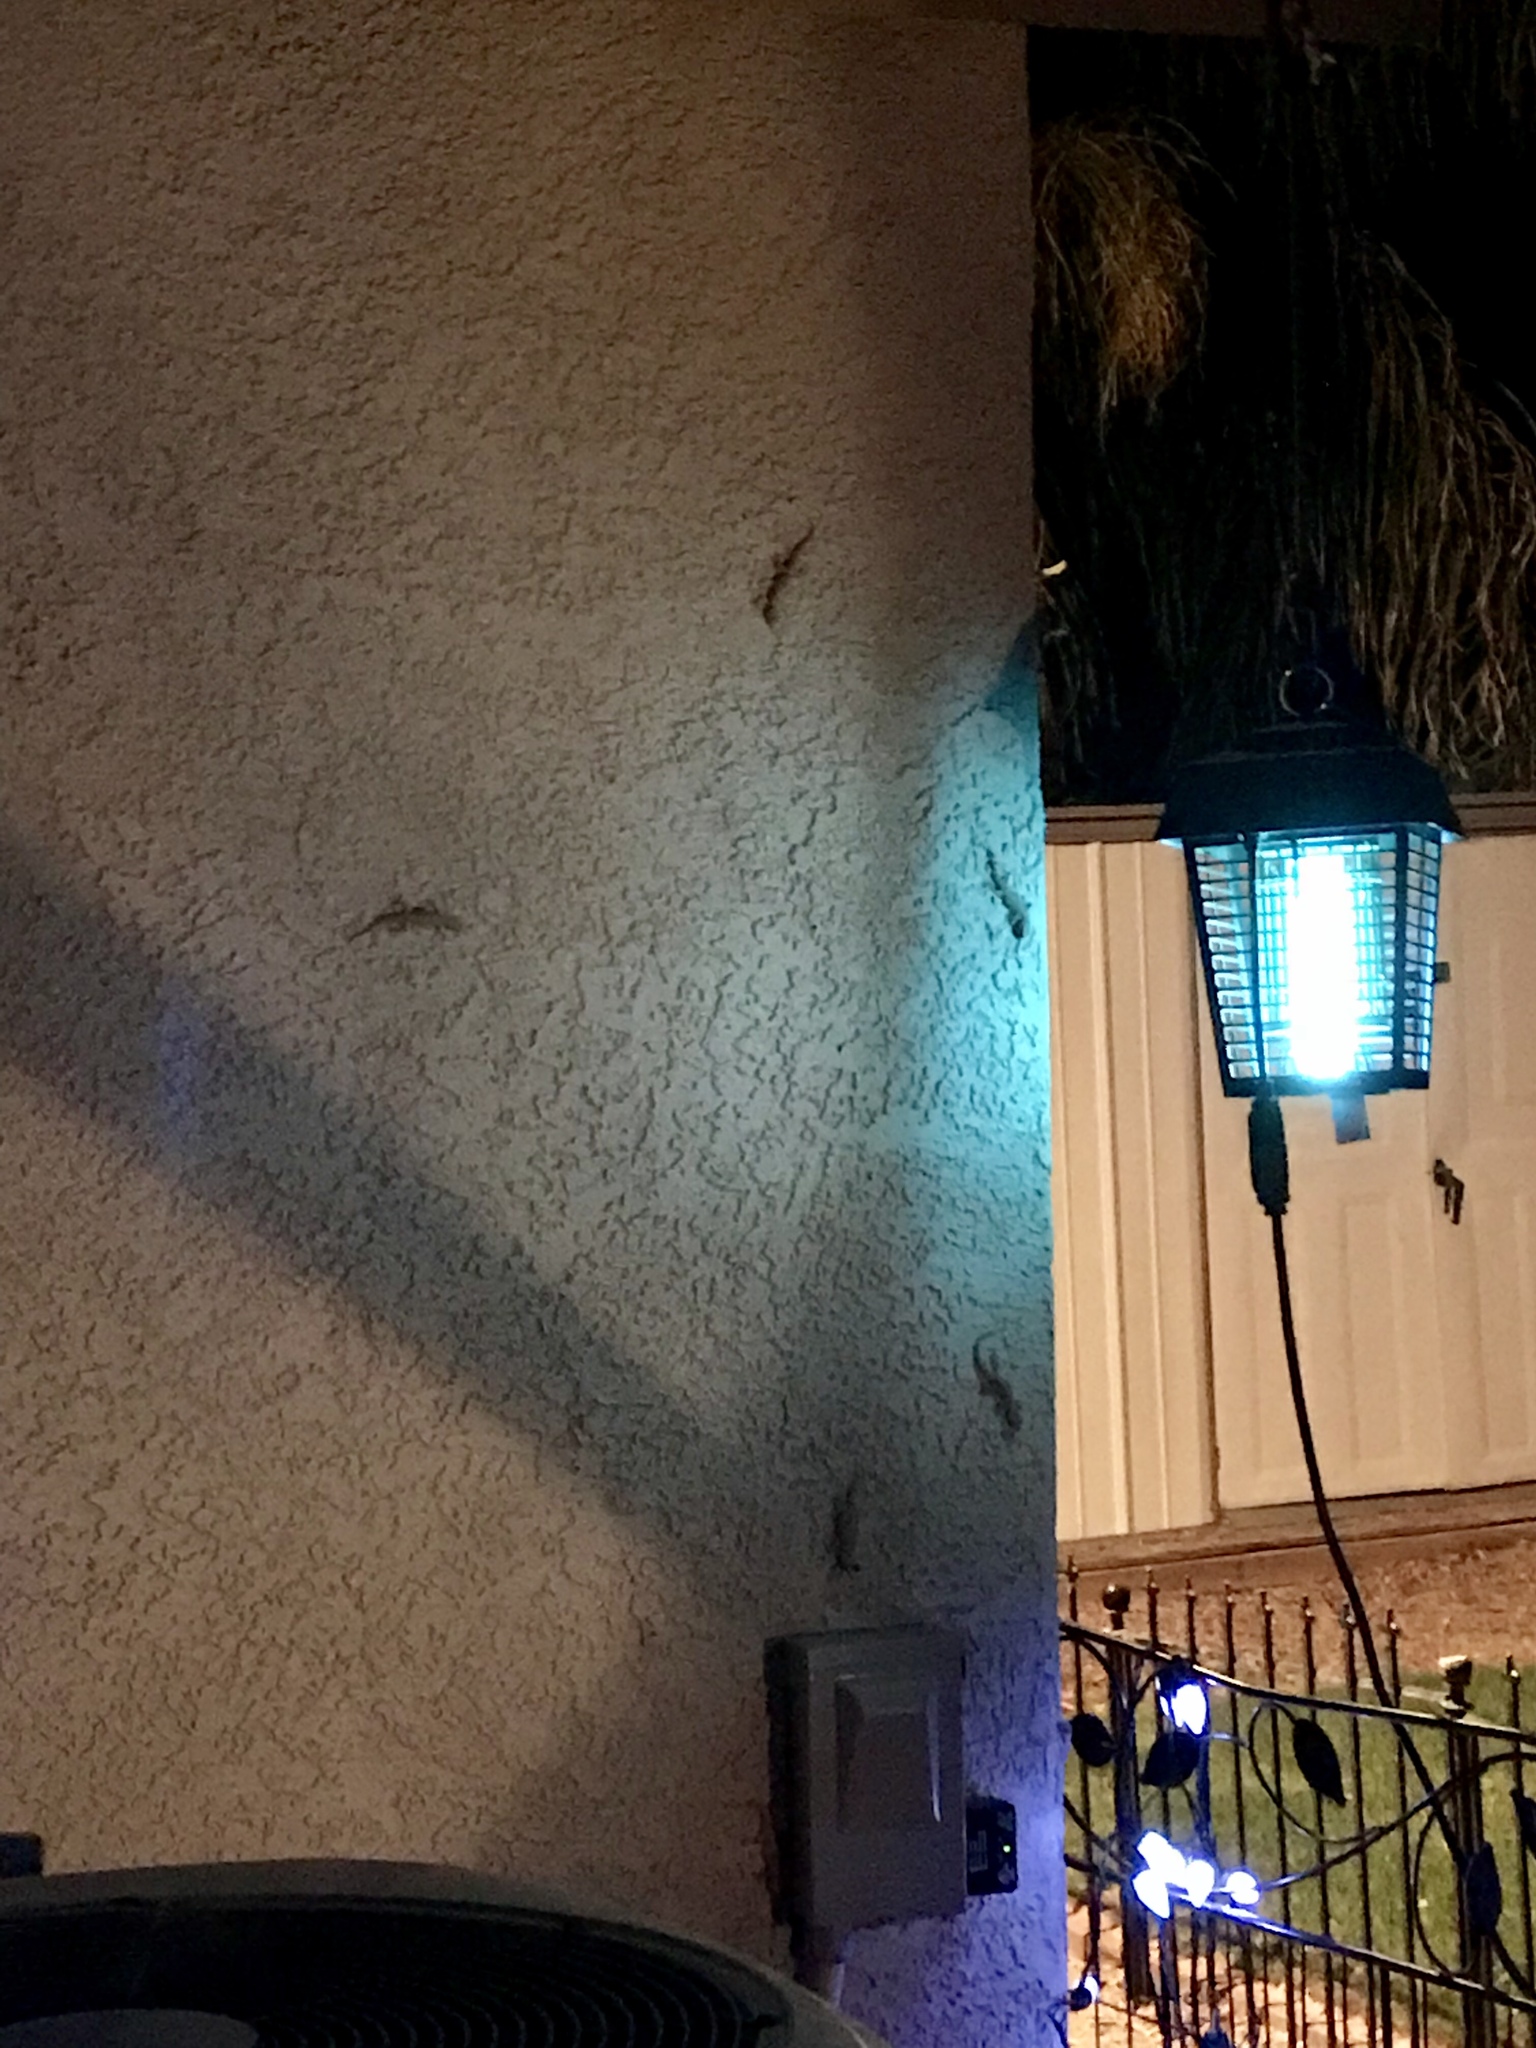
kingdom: Animalia
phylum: Chordata
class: Squamata
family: Gekkonidae
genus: Hemidactylus
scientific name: Hemidactylus turcicus
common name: Turkish gecko
